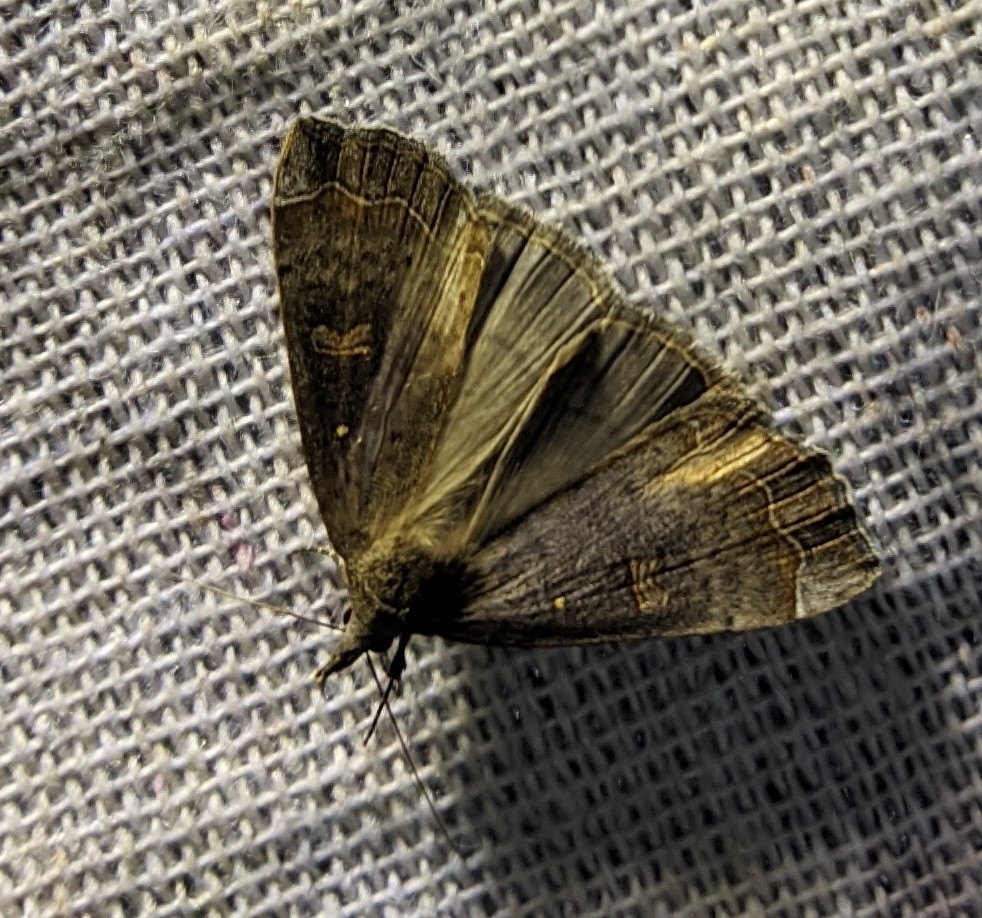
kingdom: Animalia
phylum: Arthropoda
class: Insecta
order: Lepidoptera
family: Erebidae
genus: Rhapsa
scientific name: Rhapsa scotosialis
